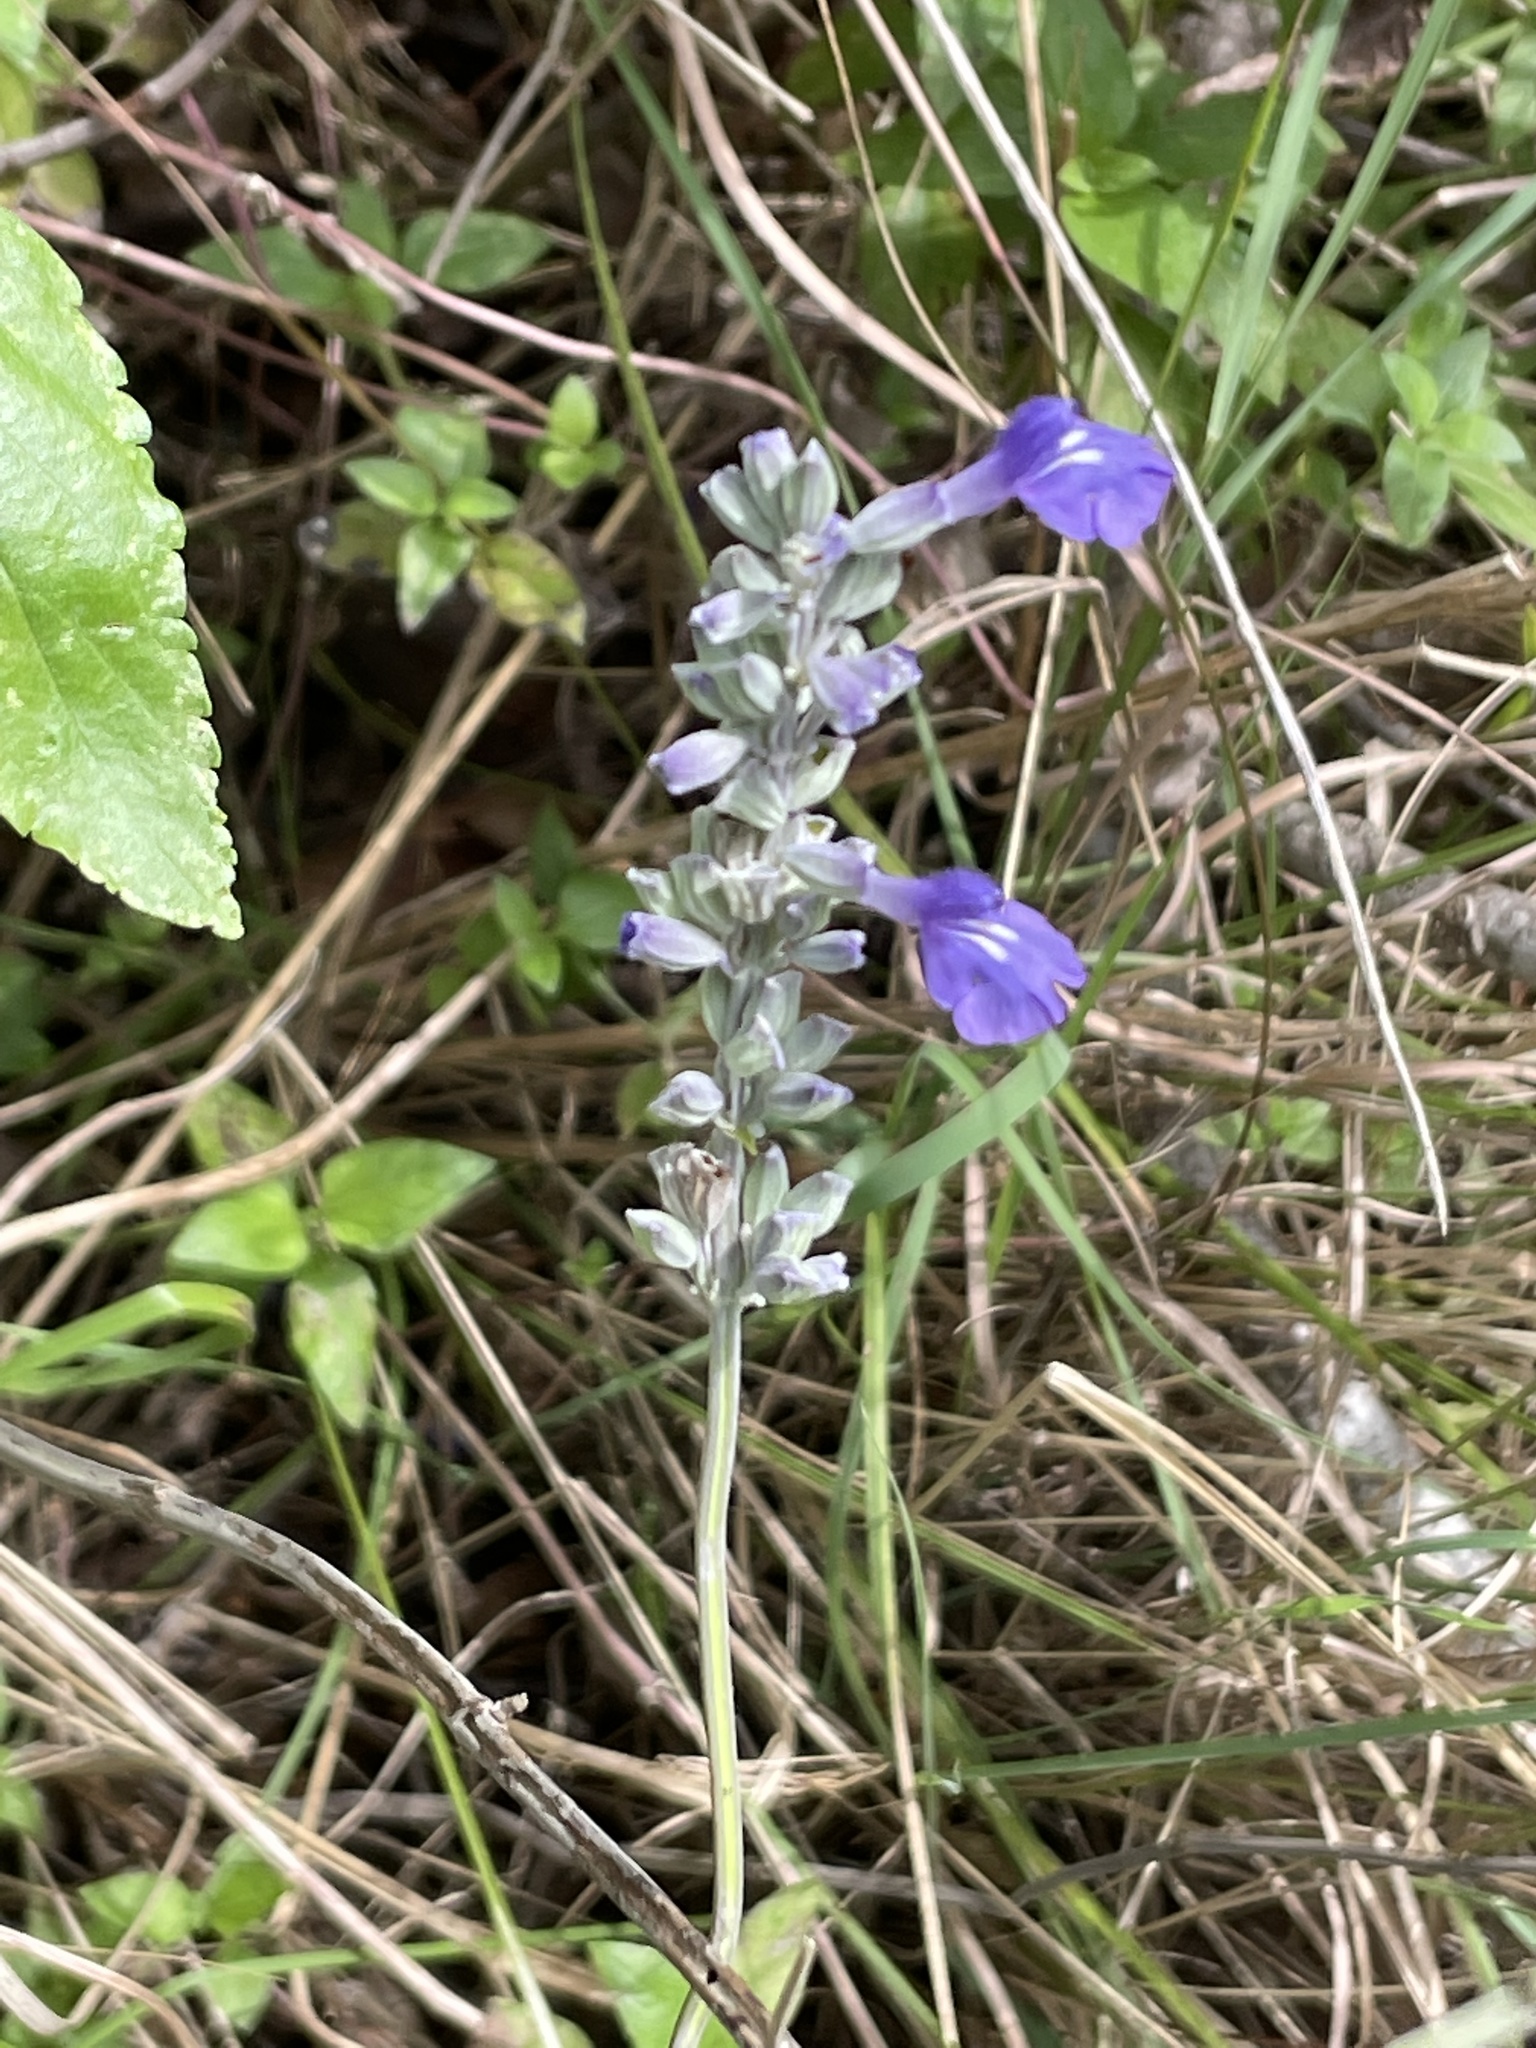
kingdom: Plantae
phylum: Tracheophyta
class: Magnoliopsida
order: Lamiales
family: Lamiaceae
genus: Salvia
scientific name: Salvia farinacea
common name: Mealy sage
